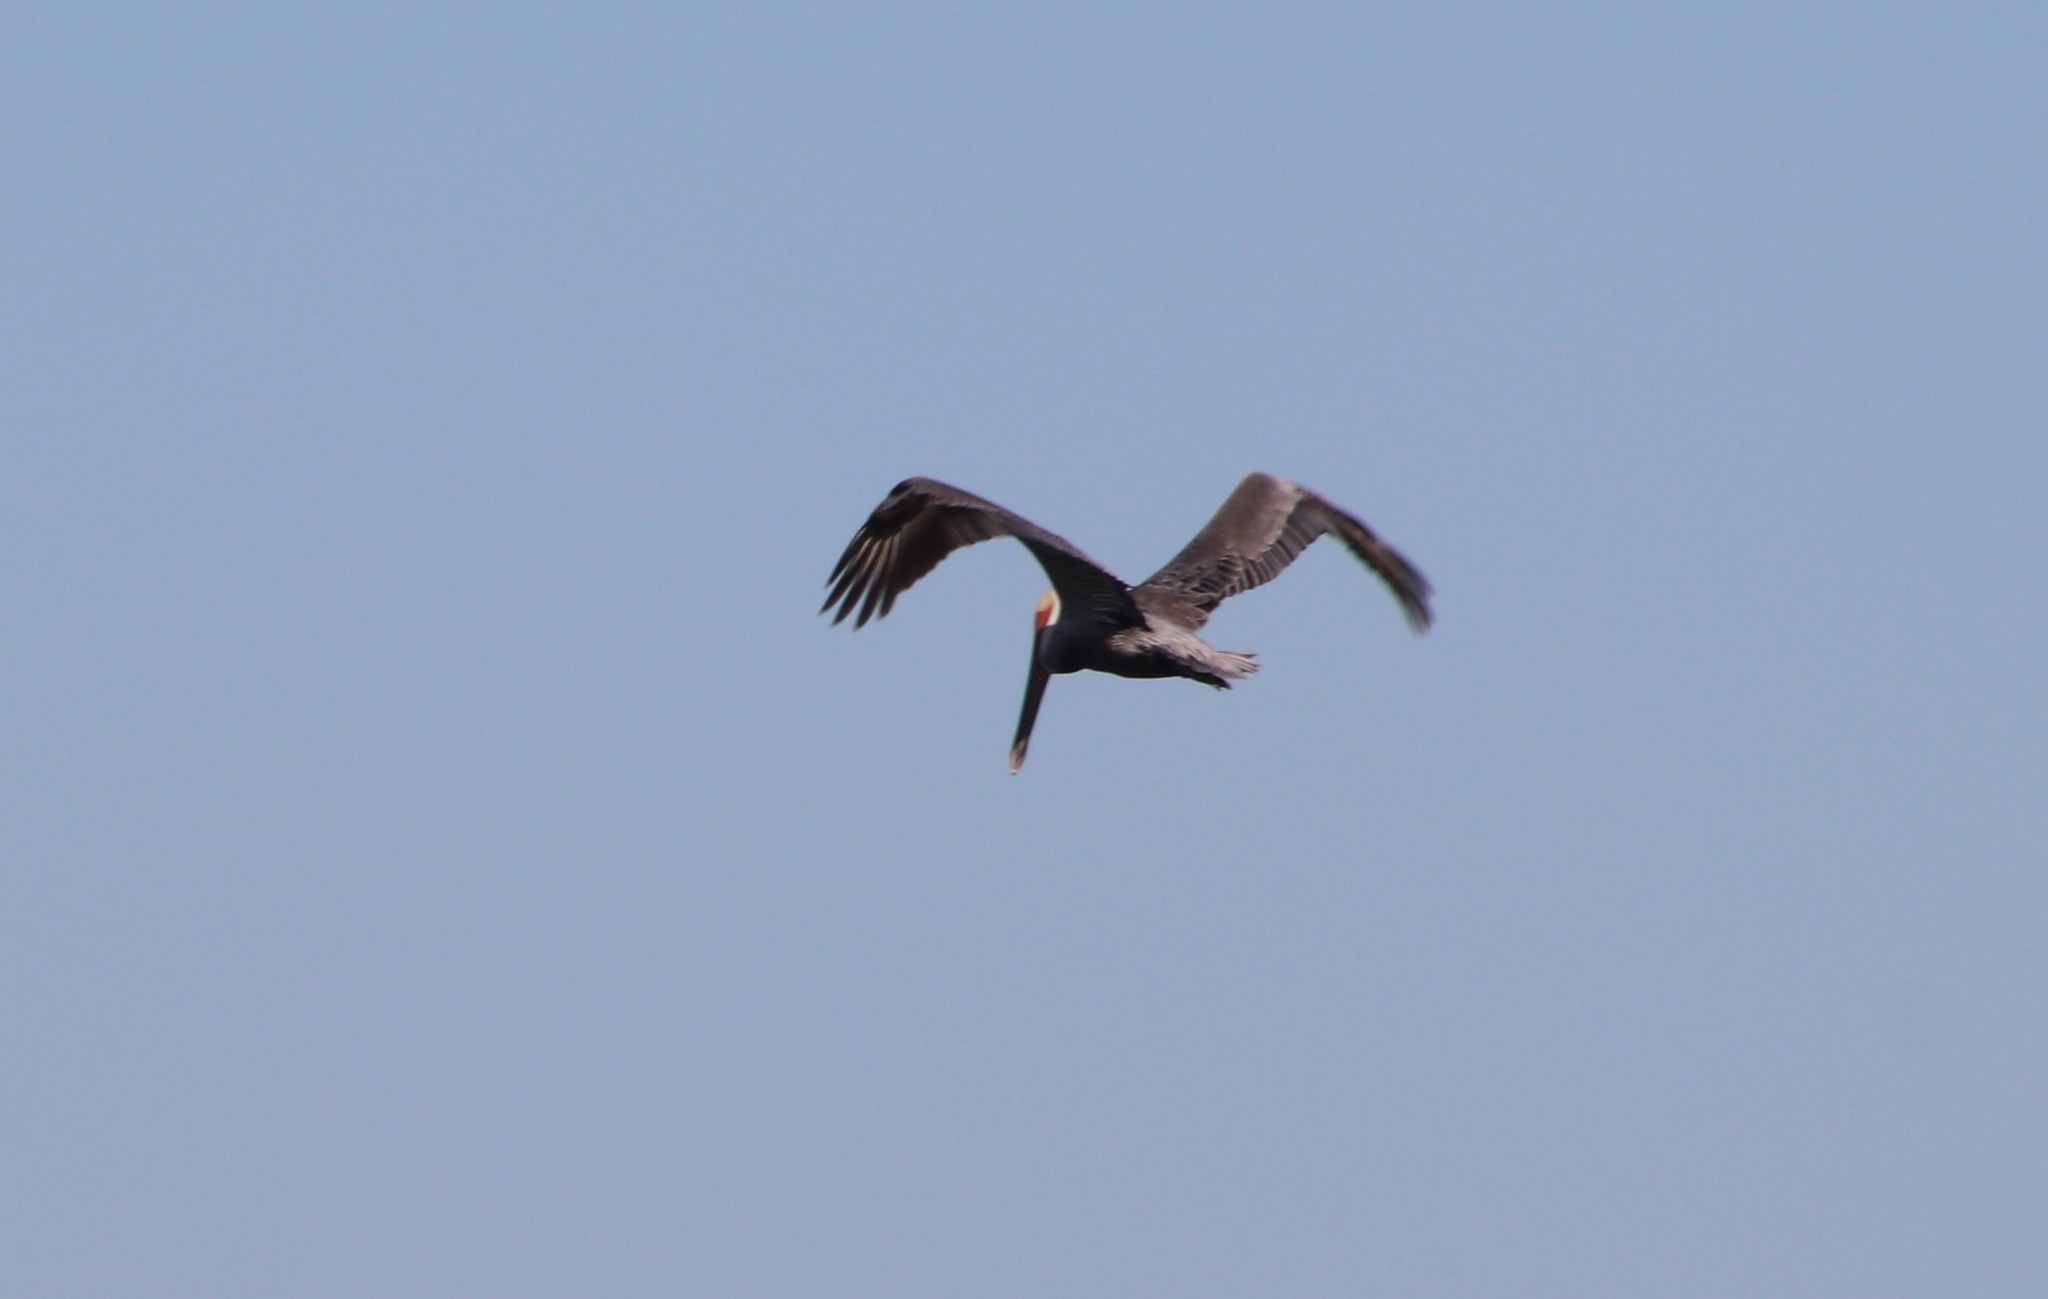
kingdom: Animalia
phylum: Chordata
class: Aves
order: Pelecaniformes
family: Pelecanidae
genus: Pelecanus
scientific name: Pelecanus occidentalis
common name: Brown pelican
